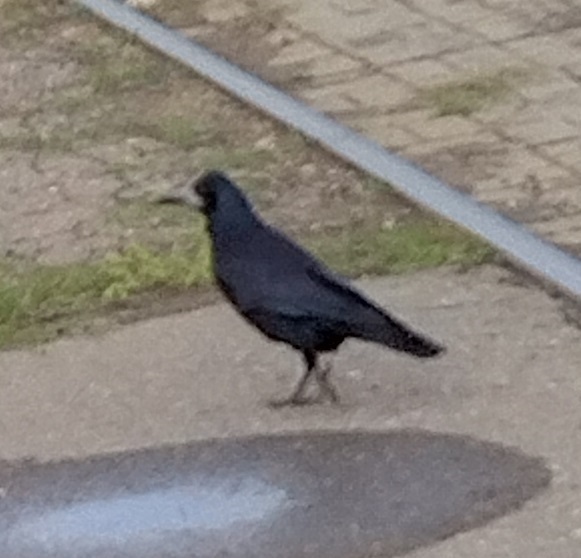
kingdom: Animalia
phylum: Chordata
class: Aves
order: Passeriformes
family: Corvidae
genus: Corvus
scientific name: Corvus frugilegus
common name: Rook
